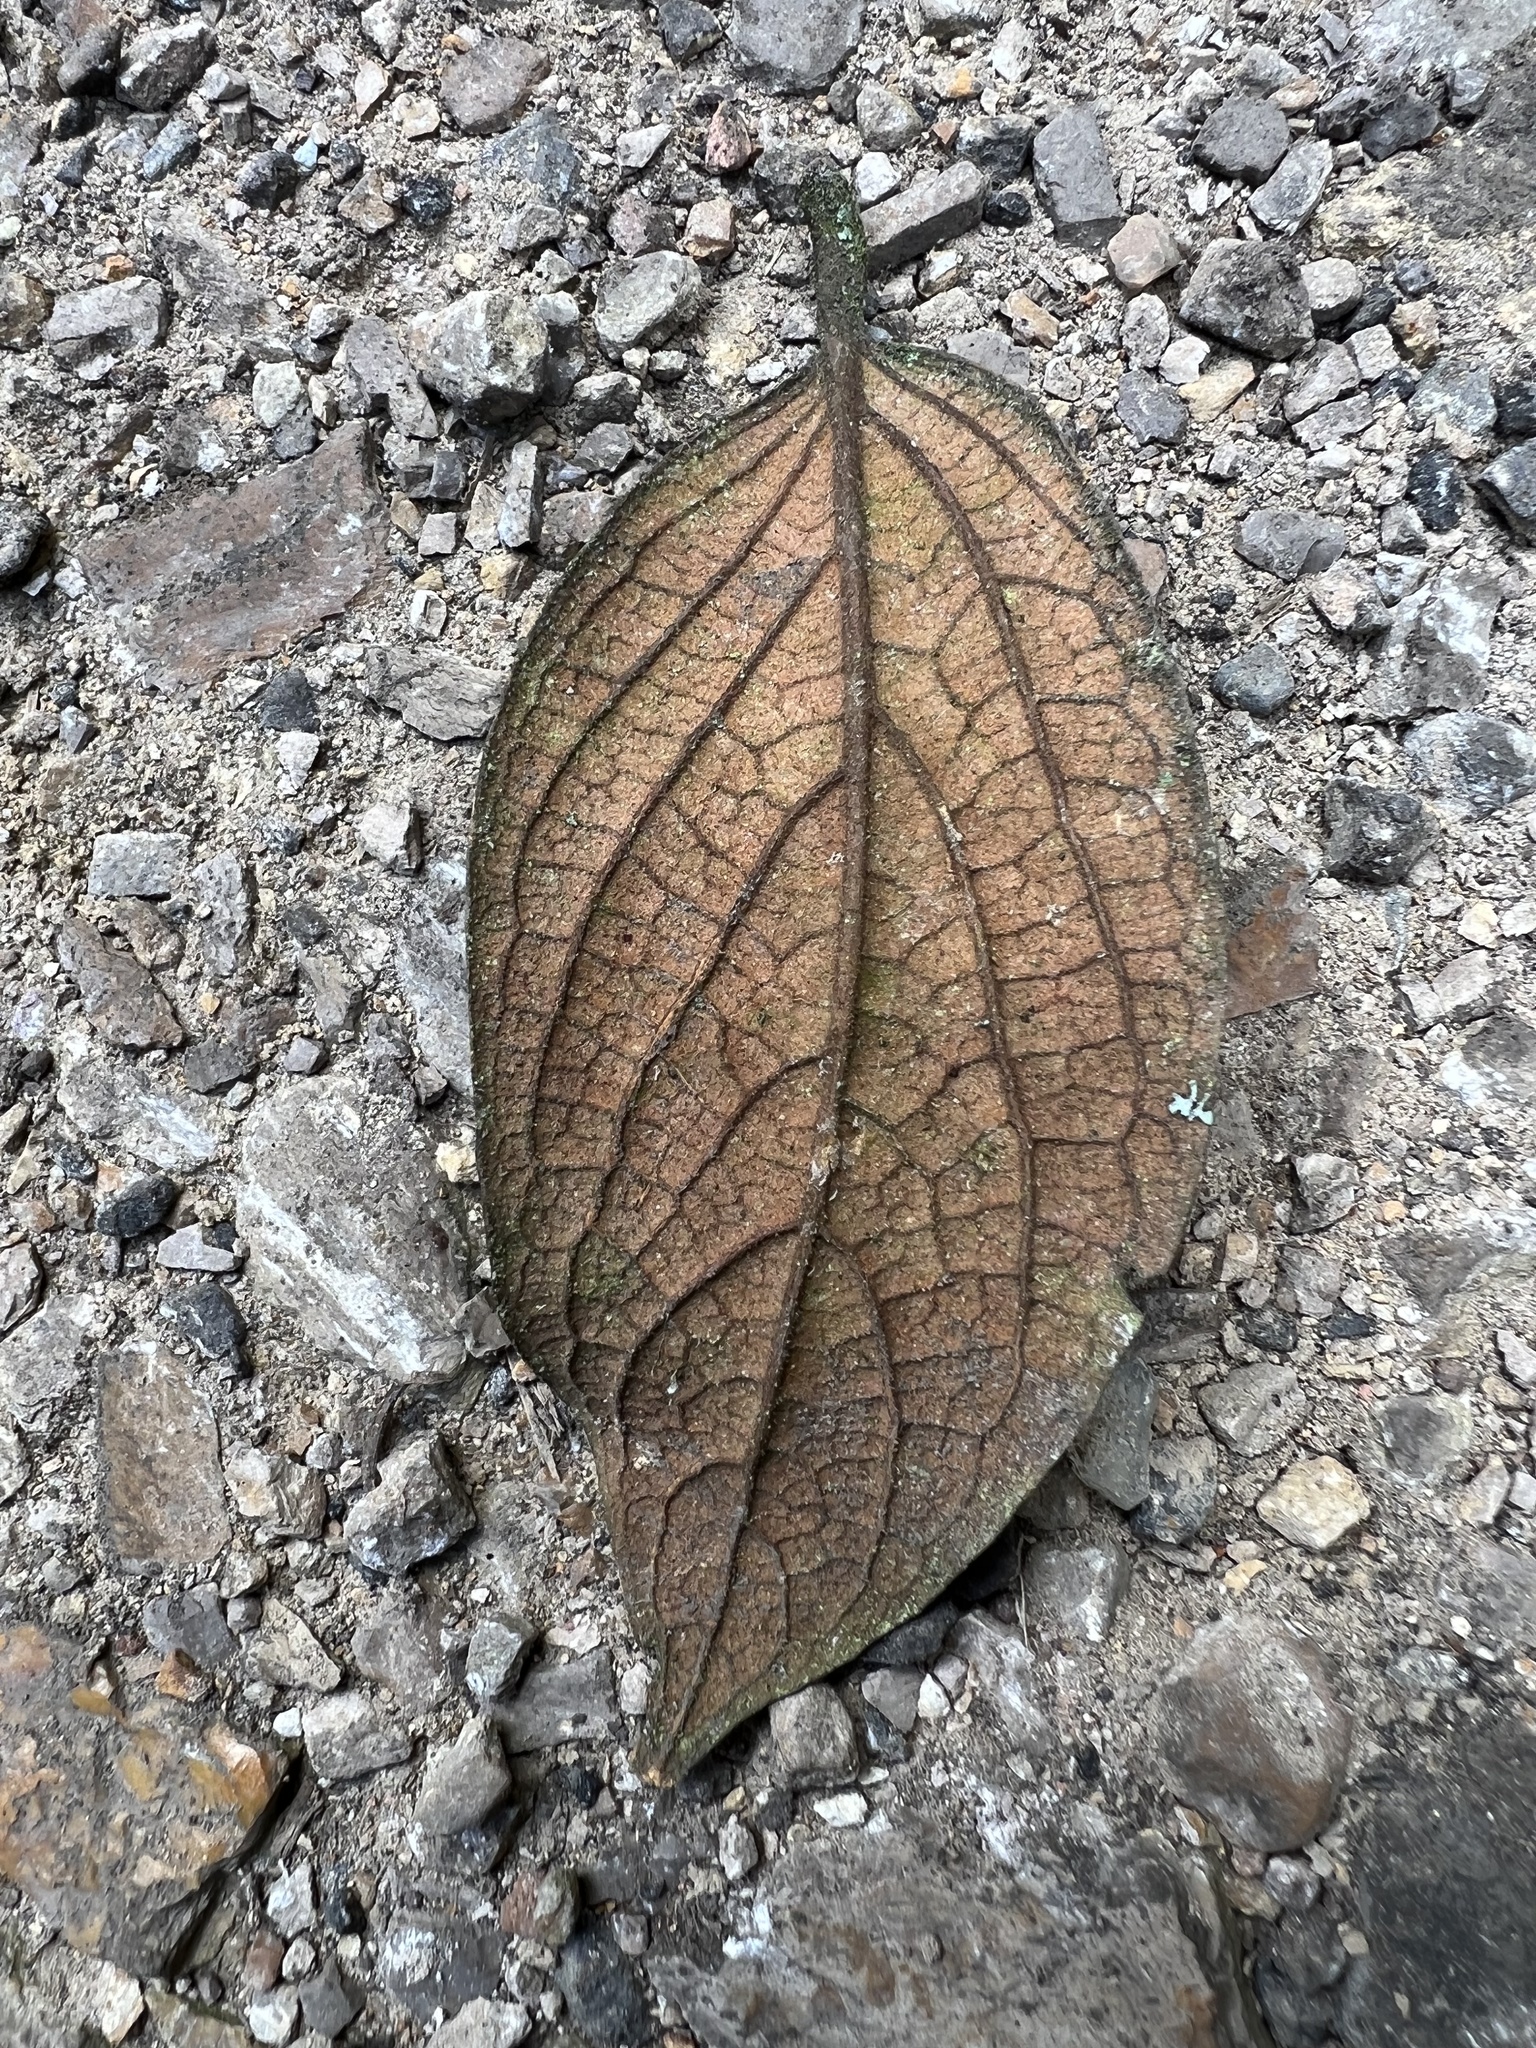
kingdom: Plantae
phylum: Tracheophyta
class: Magnoliopsida
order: Laurales
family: Lauraceae
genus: Ocotea
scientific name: Ocotea pedicellata
